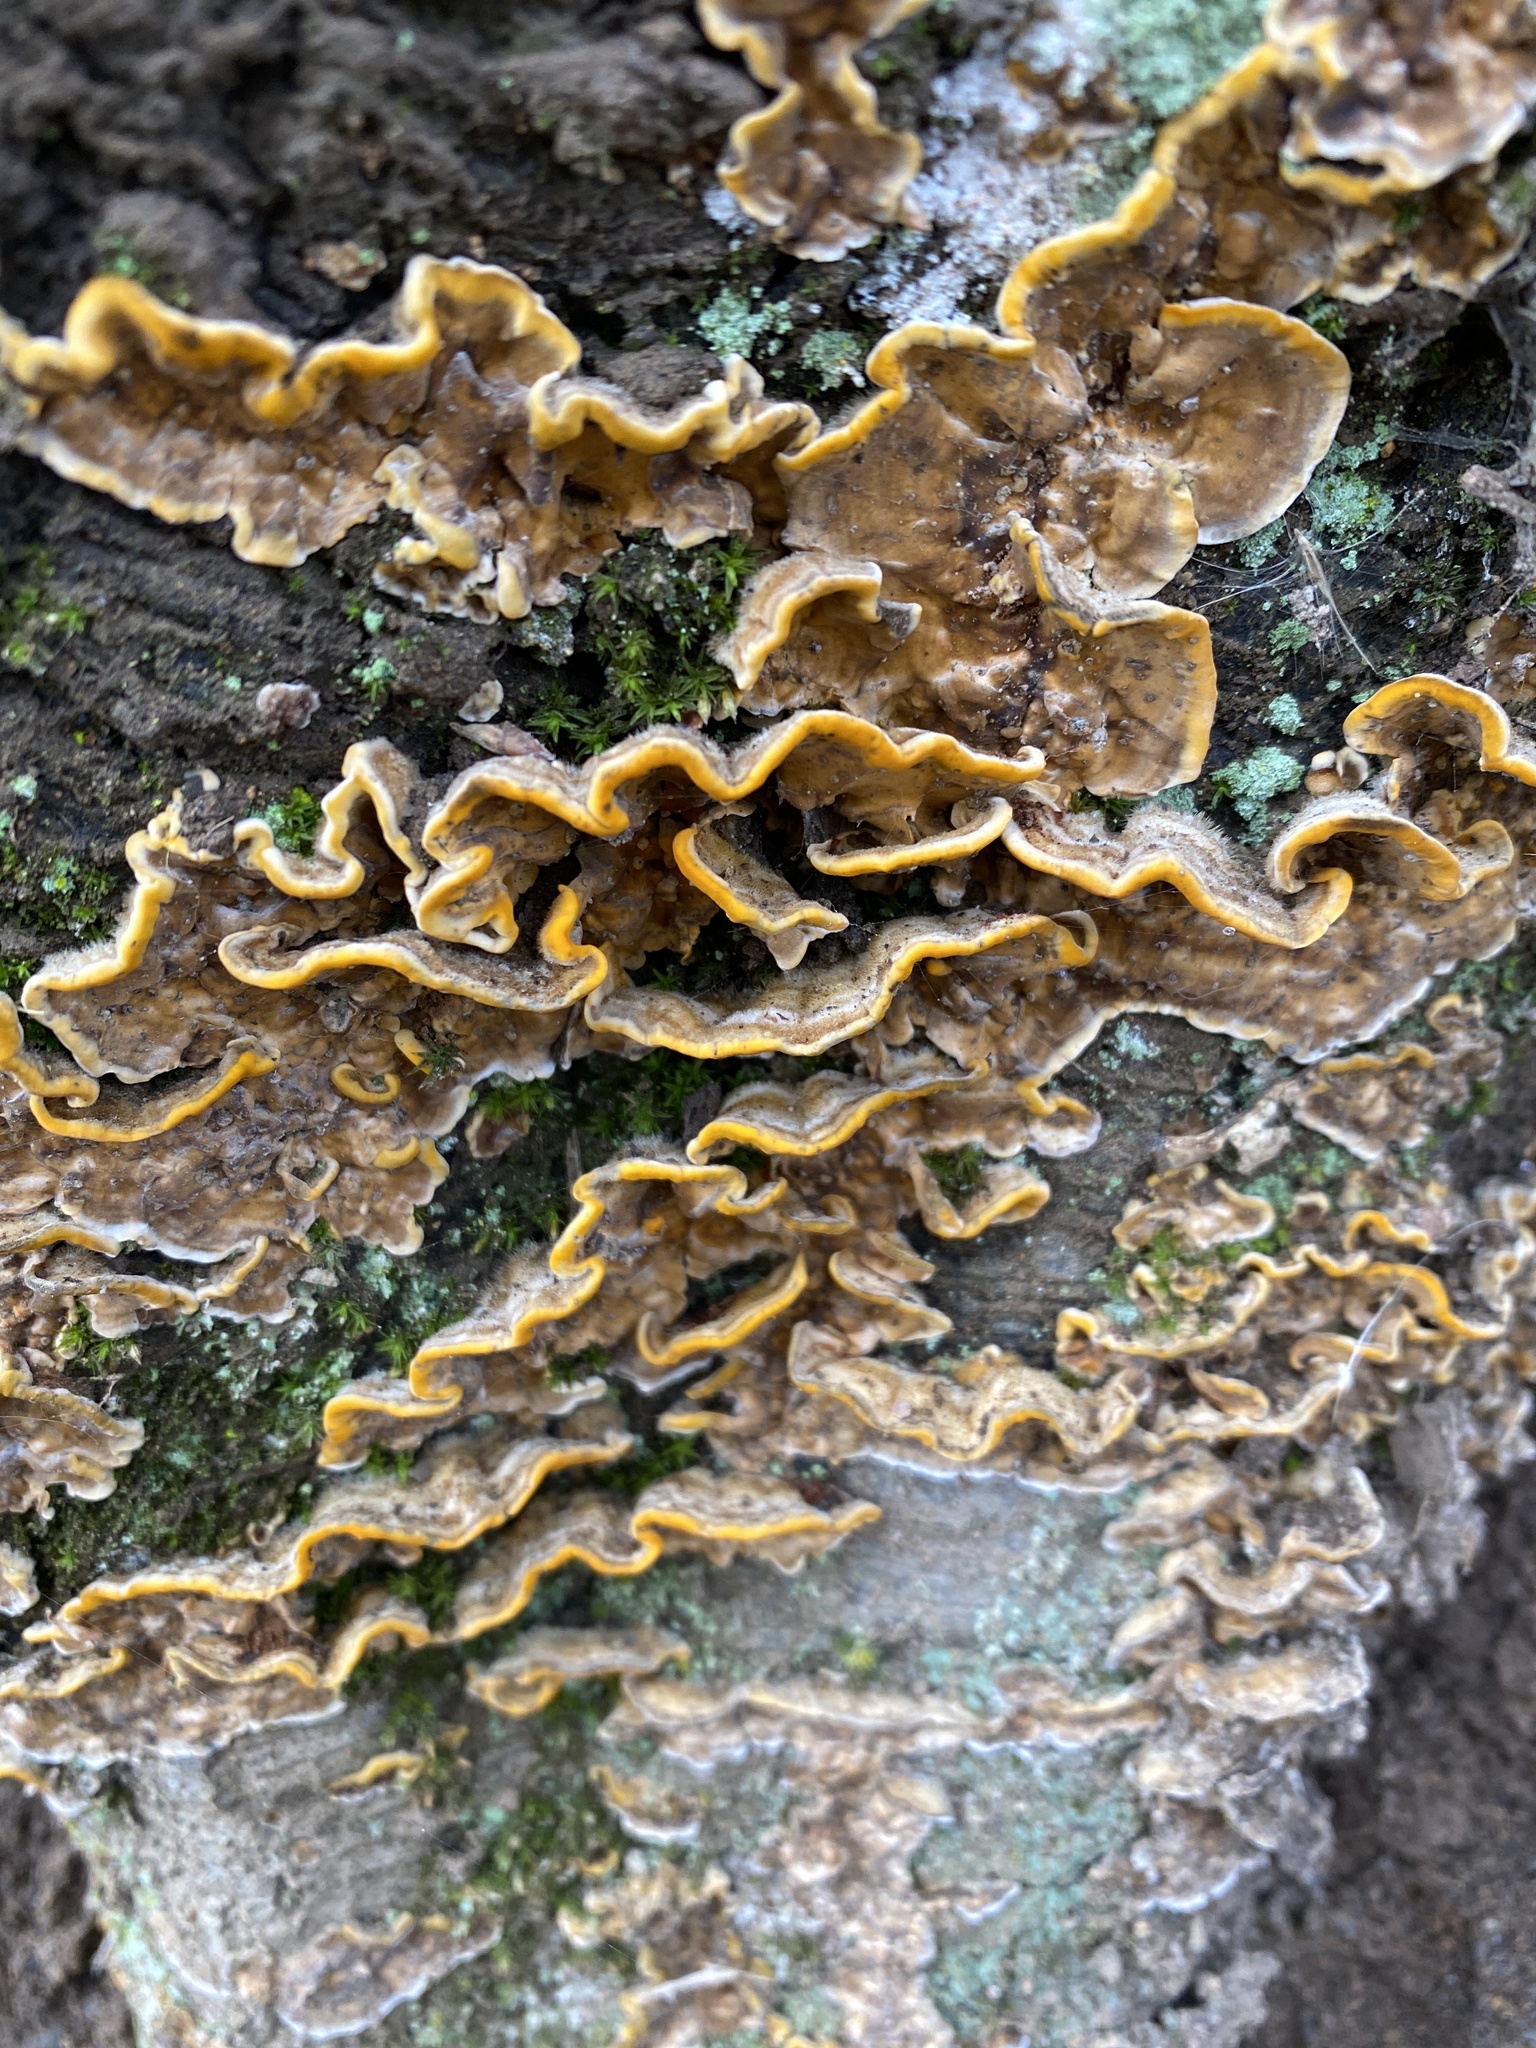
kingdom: Fungi
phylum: Basidiomycota
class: Agaricomycetes
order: Russulales
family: Stereaceae
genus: Stereum
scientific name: Stereum hirsutum
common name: Hairy curtain crust
